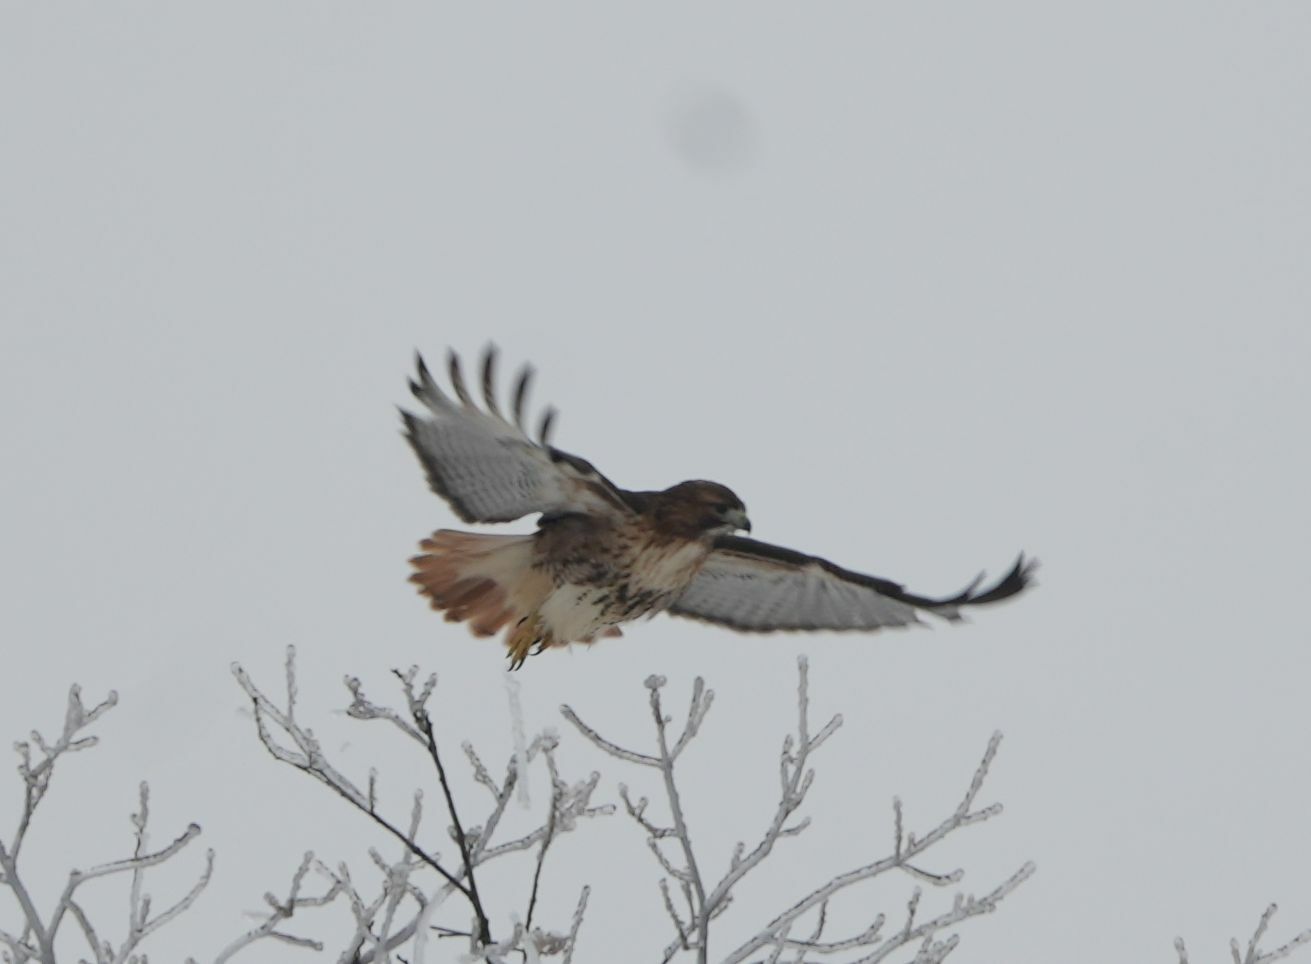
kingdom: Animalia
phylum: Chordata
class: Aves
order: Accipitriformes
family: Accipitridae
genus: Buteo
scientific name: Buteo jamaicensis
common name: Red-tailed hawk
